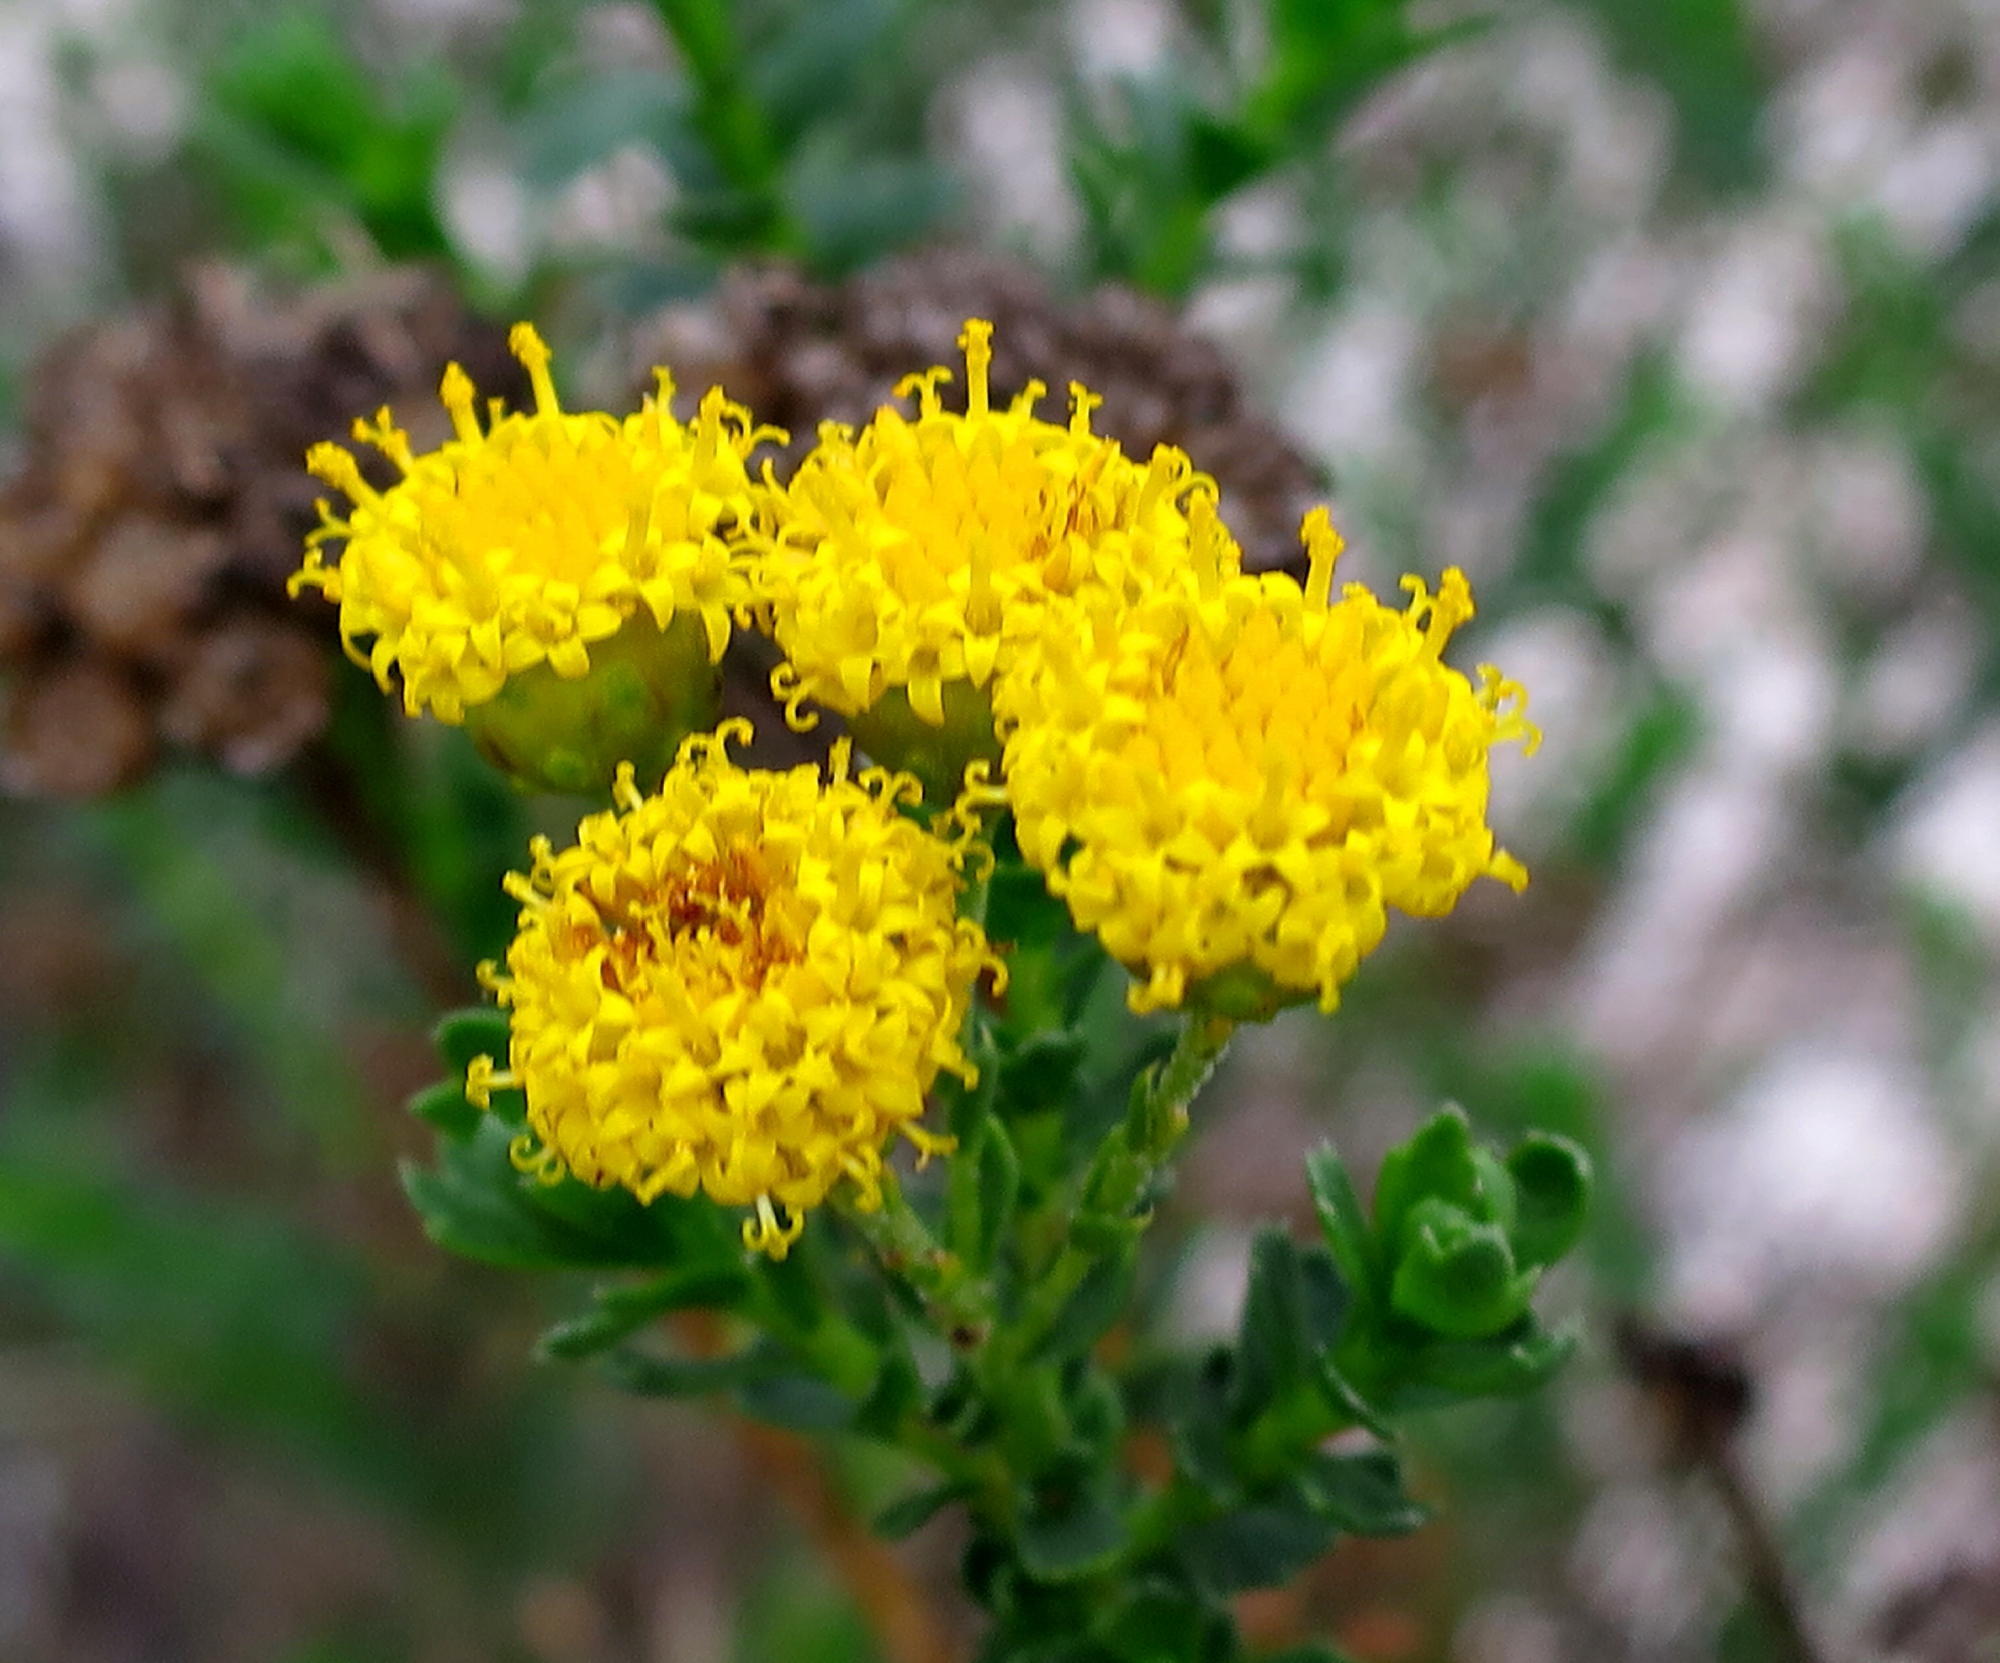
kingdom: Plantae
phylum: Tracheophyta
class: Magnoliopsida
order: Asterales
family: Asteraceae
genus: Athanasia
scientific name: Athanasia trifurcata
